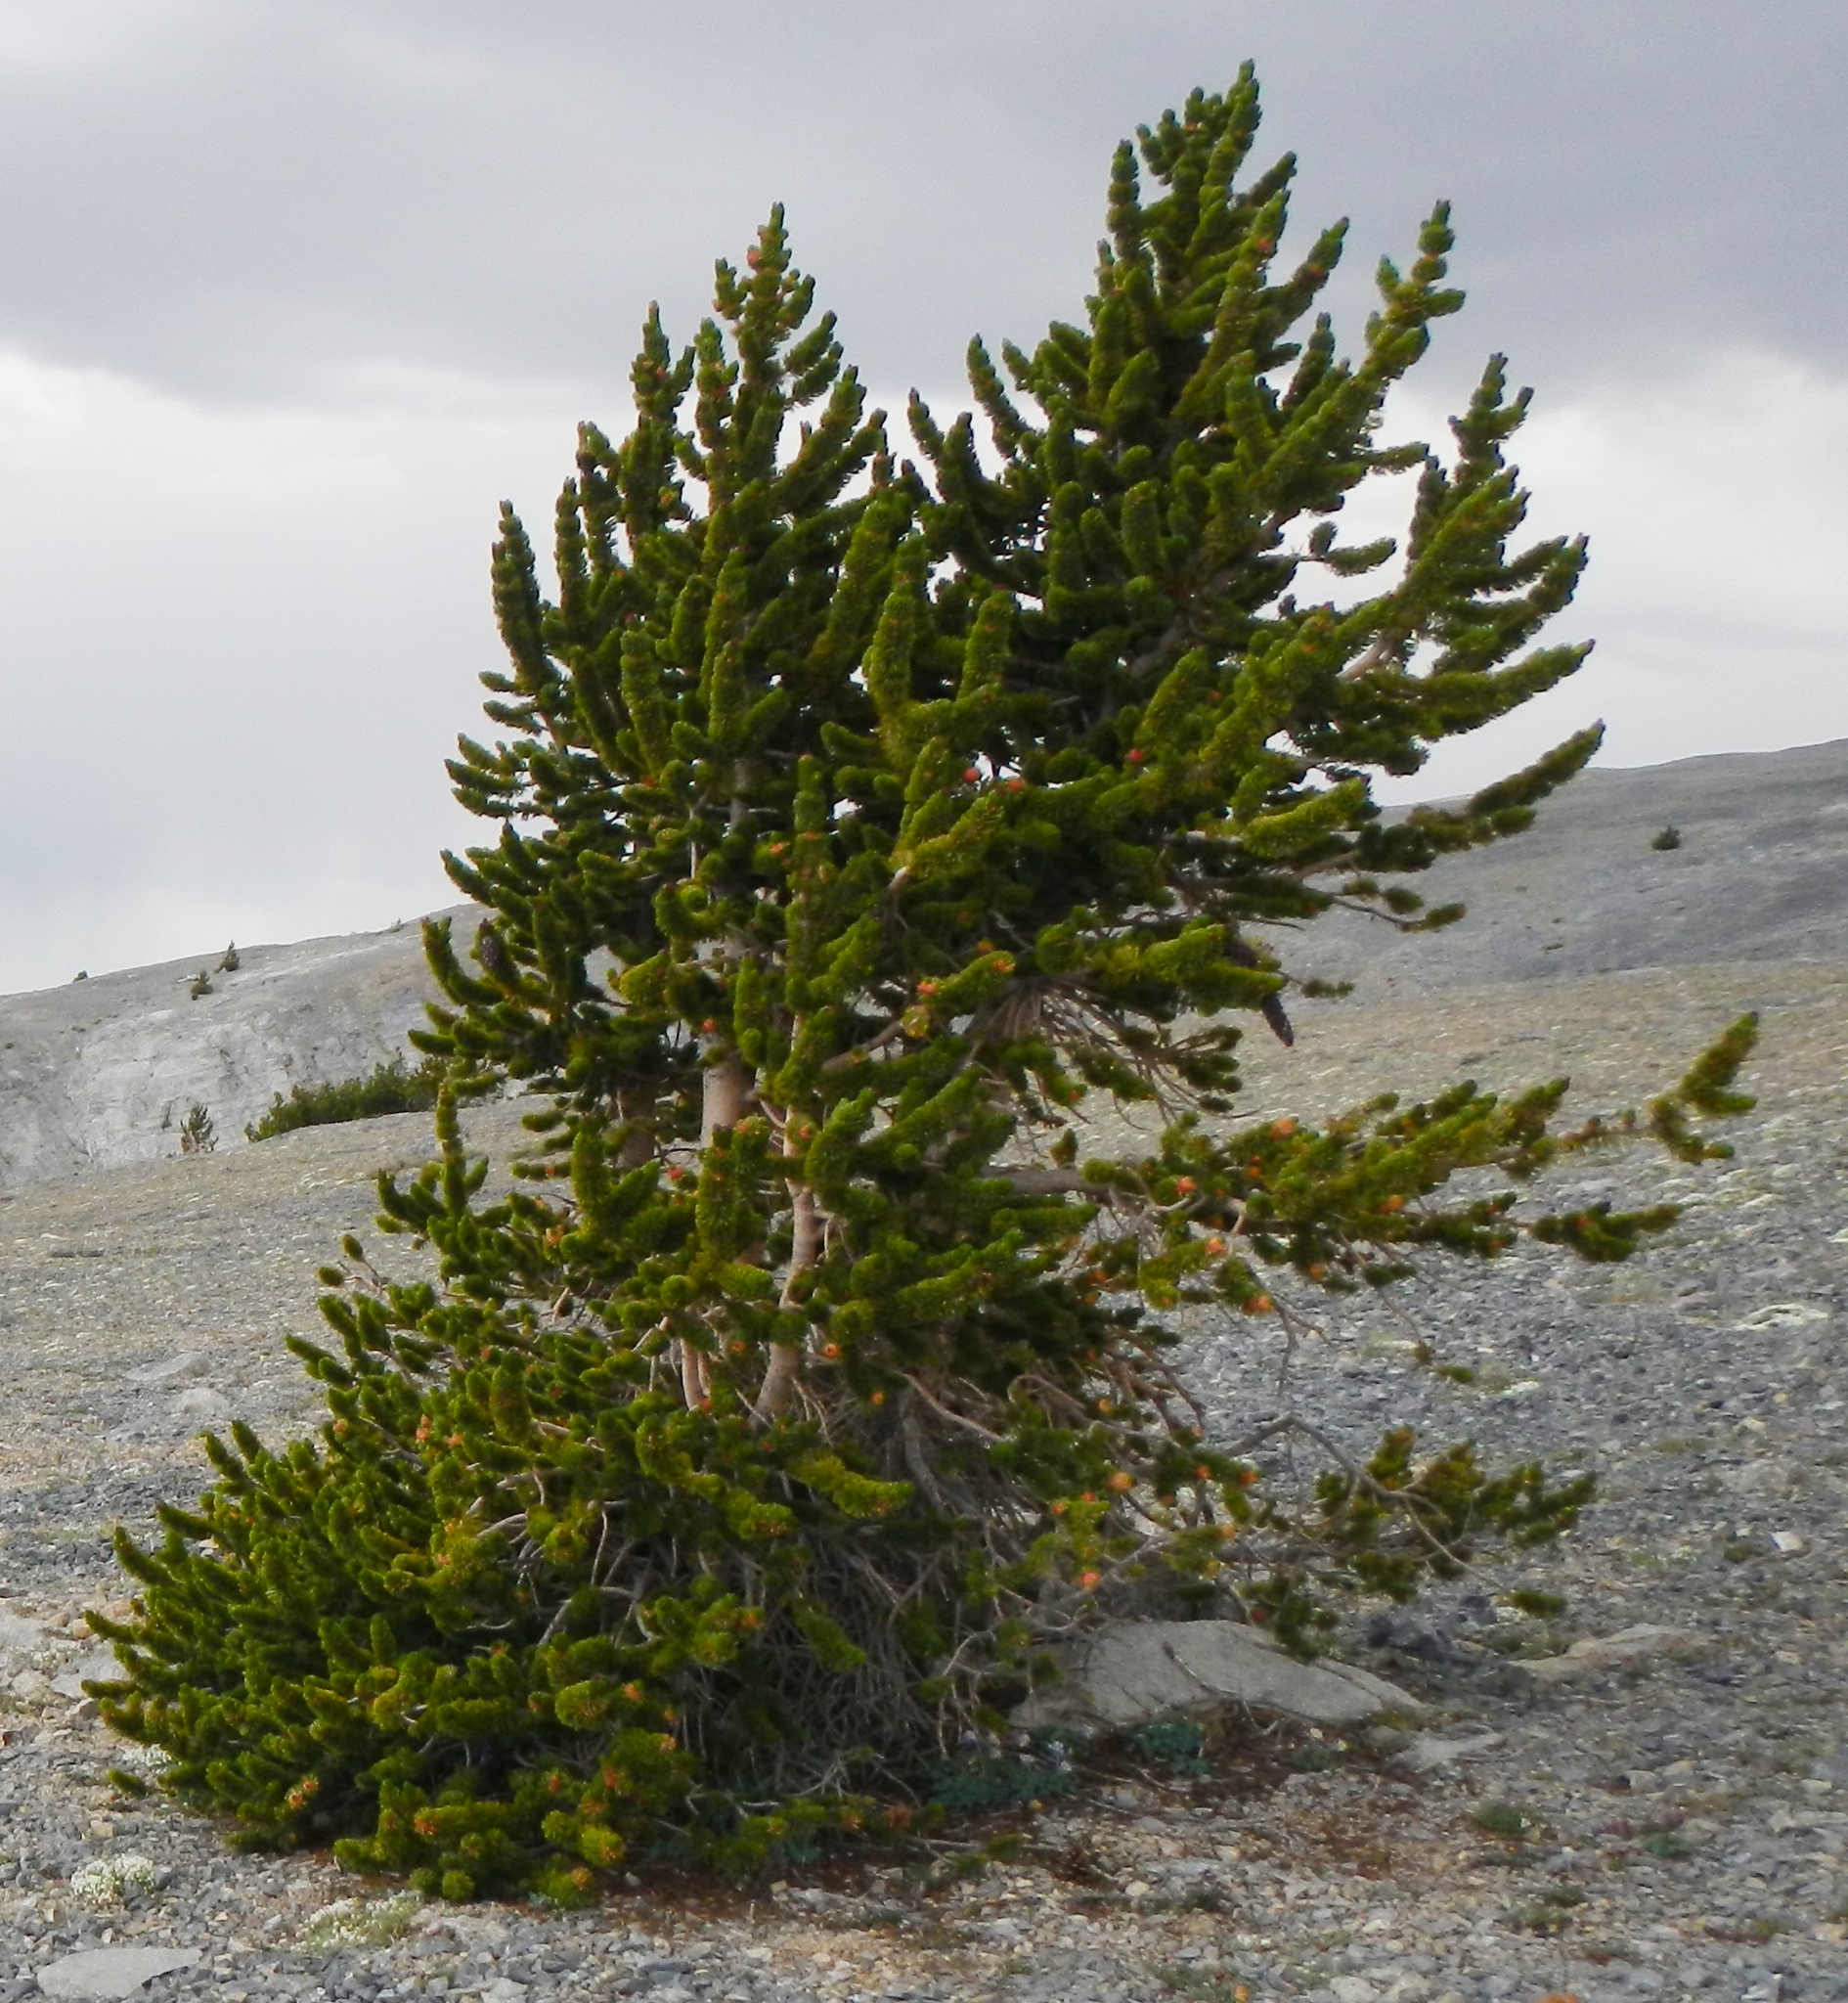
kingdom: Plantae
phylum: Tracheophyta
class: Pinopsida
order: Pinales
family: Pinaceae
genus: Pinus
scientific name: Pinus longaeva
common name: Intermountain bristlecone pine
